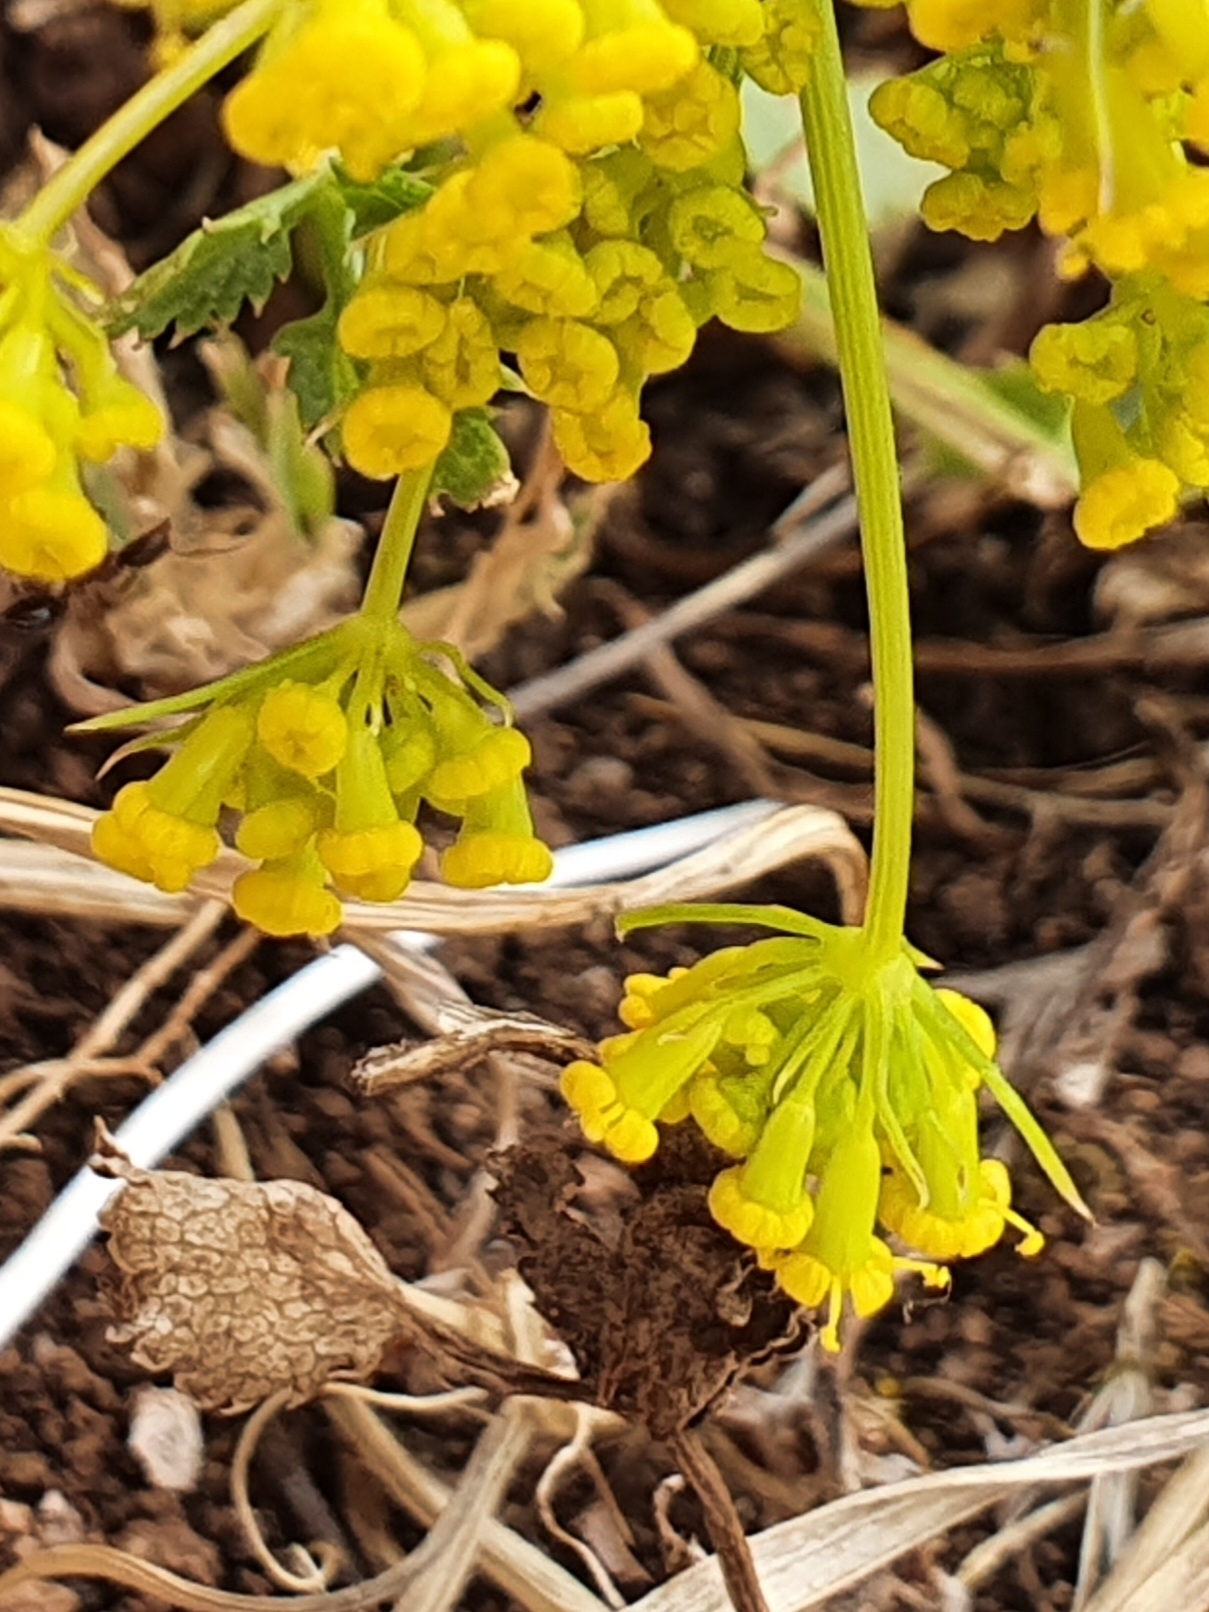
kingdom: Plantae
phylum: Tracheophyta
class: Magnoliopsida
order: Apiales
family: Apiaceae
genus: Kundmannia
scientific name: Kundmannia sicula
